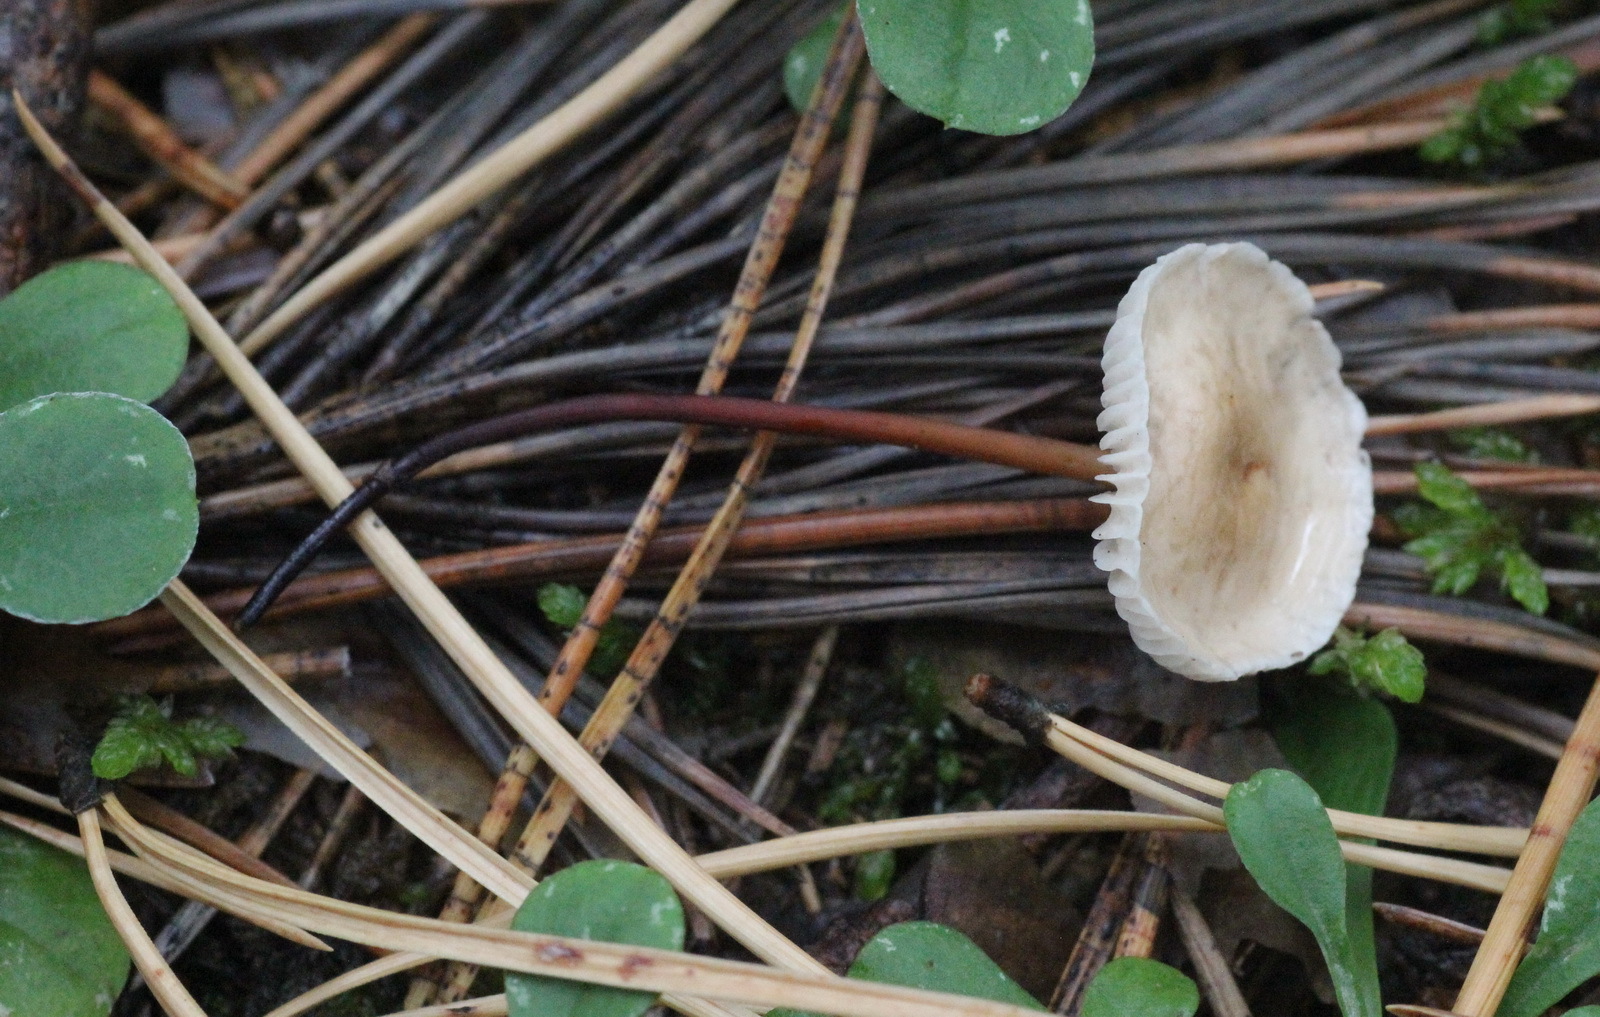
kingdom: Fungi
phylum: Basidiomycota
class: Agaricomycetes
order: Agaricales
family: Omphalotaceae
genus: Mycetinis
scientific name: Mycetinis scorodonius
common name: Vampires bane
